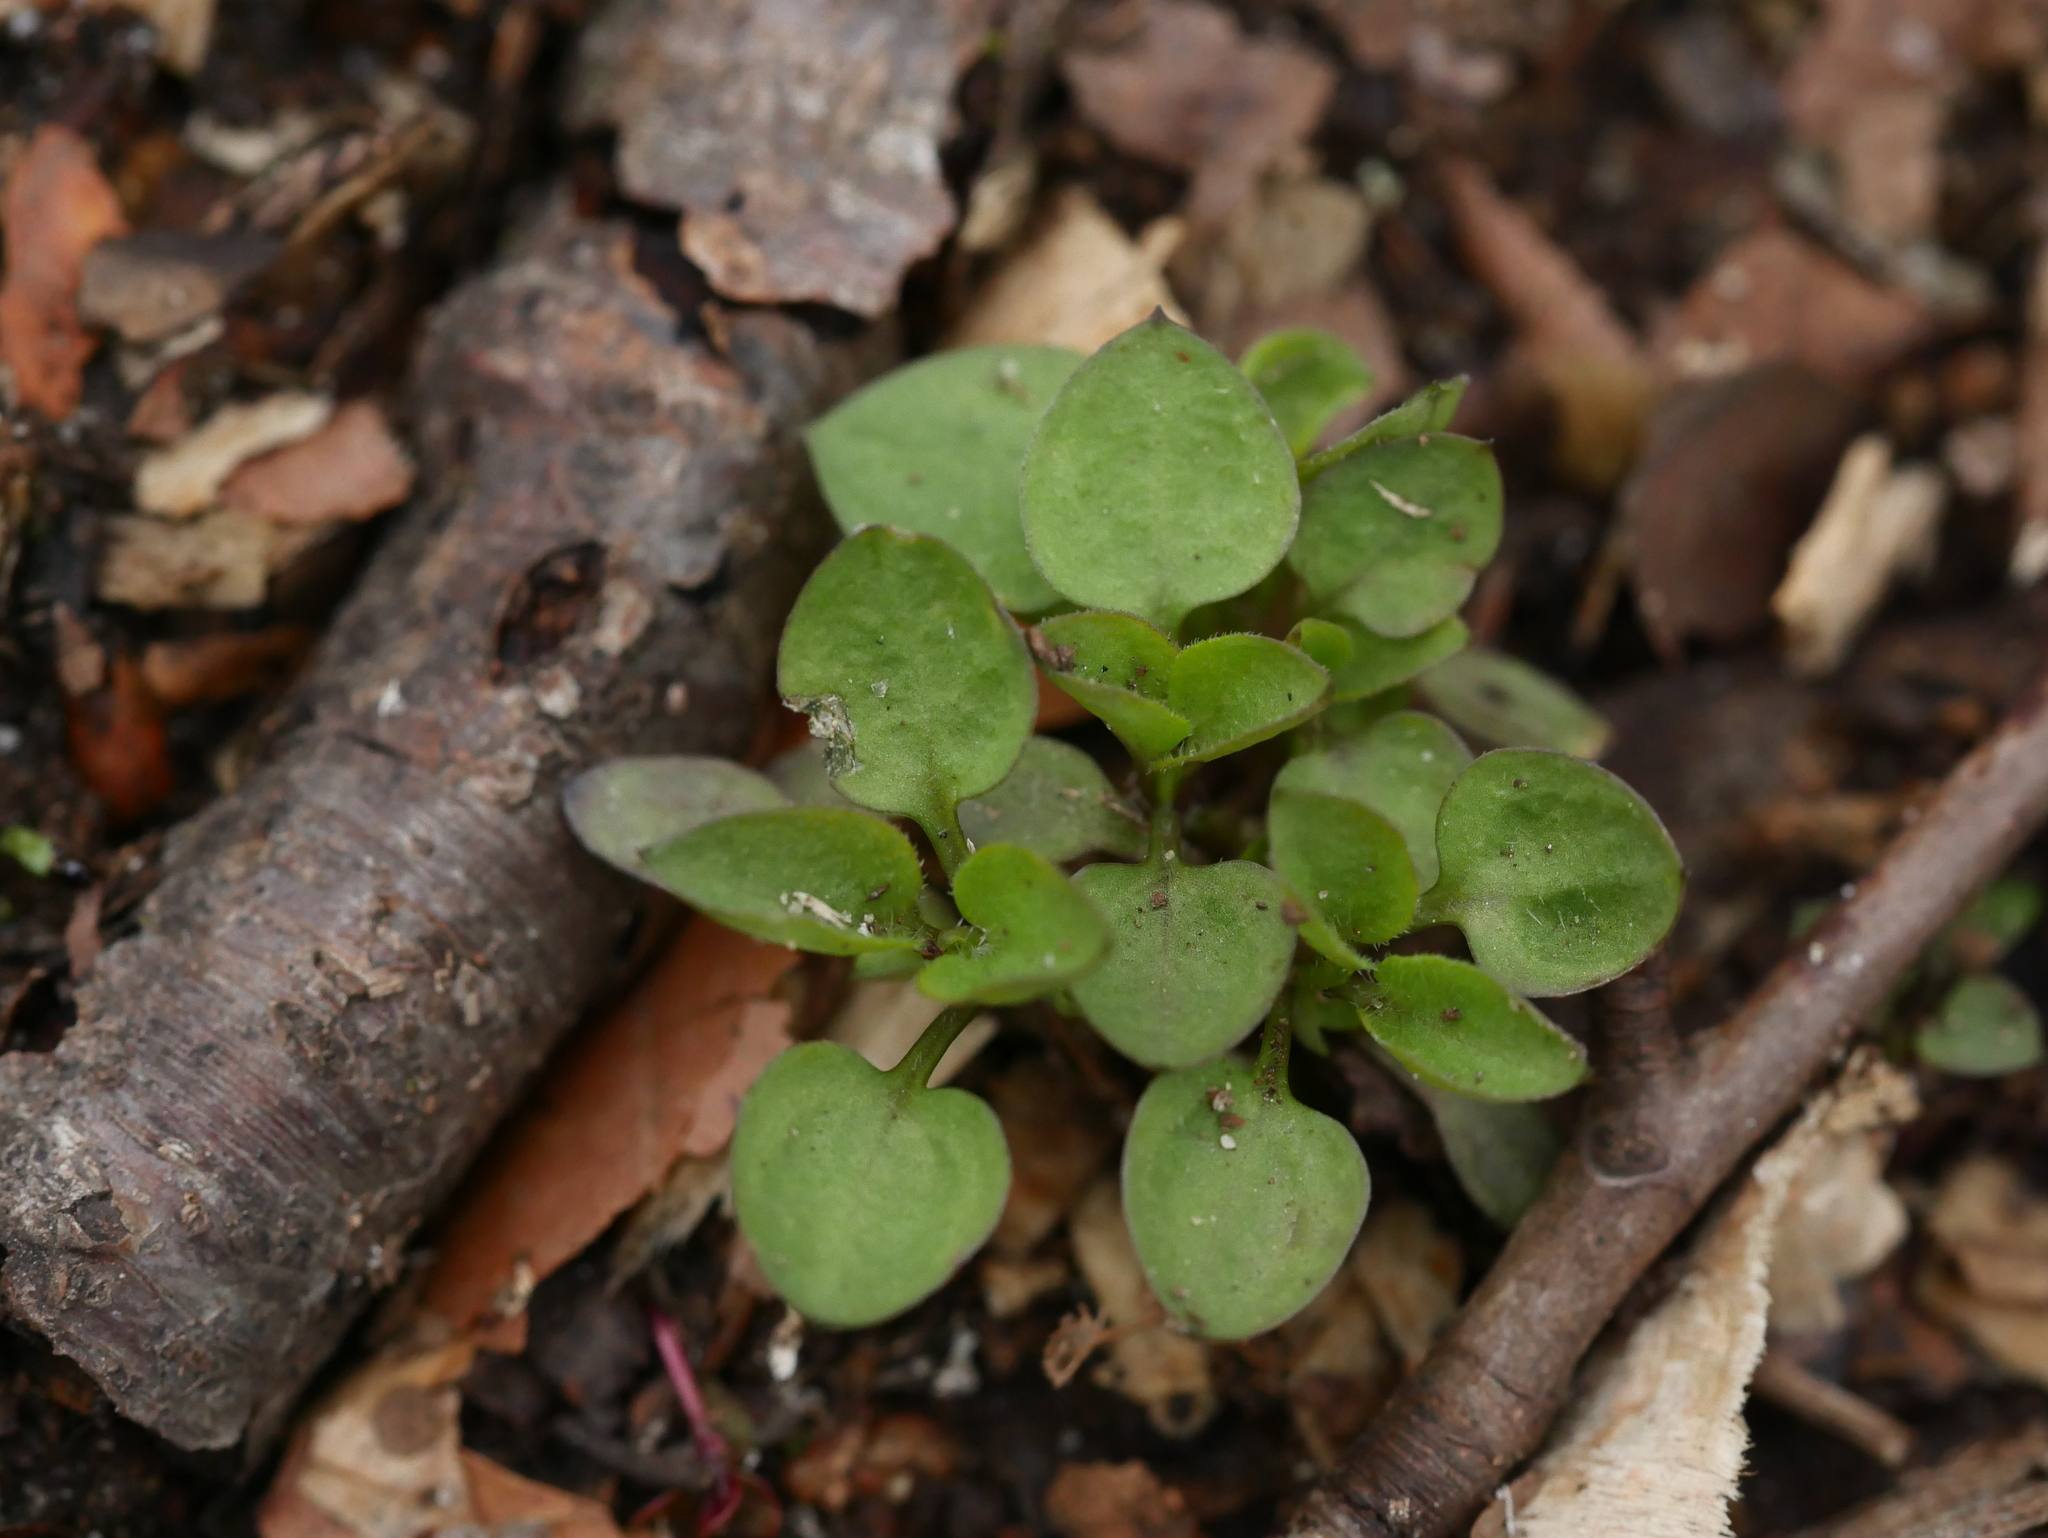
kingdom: Plantae
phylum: Tracheophyta
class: Magnoliopsida
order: Caryophyllales
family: Caryophyllaceae
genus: Moehringia
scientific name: Moehringia trinervia
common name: Three-nerved sandwort
